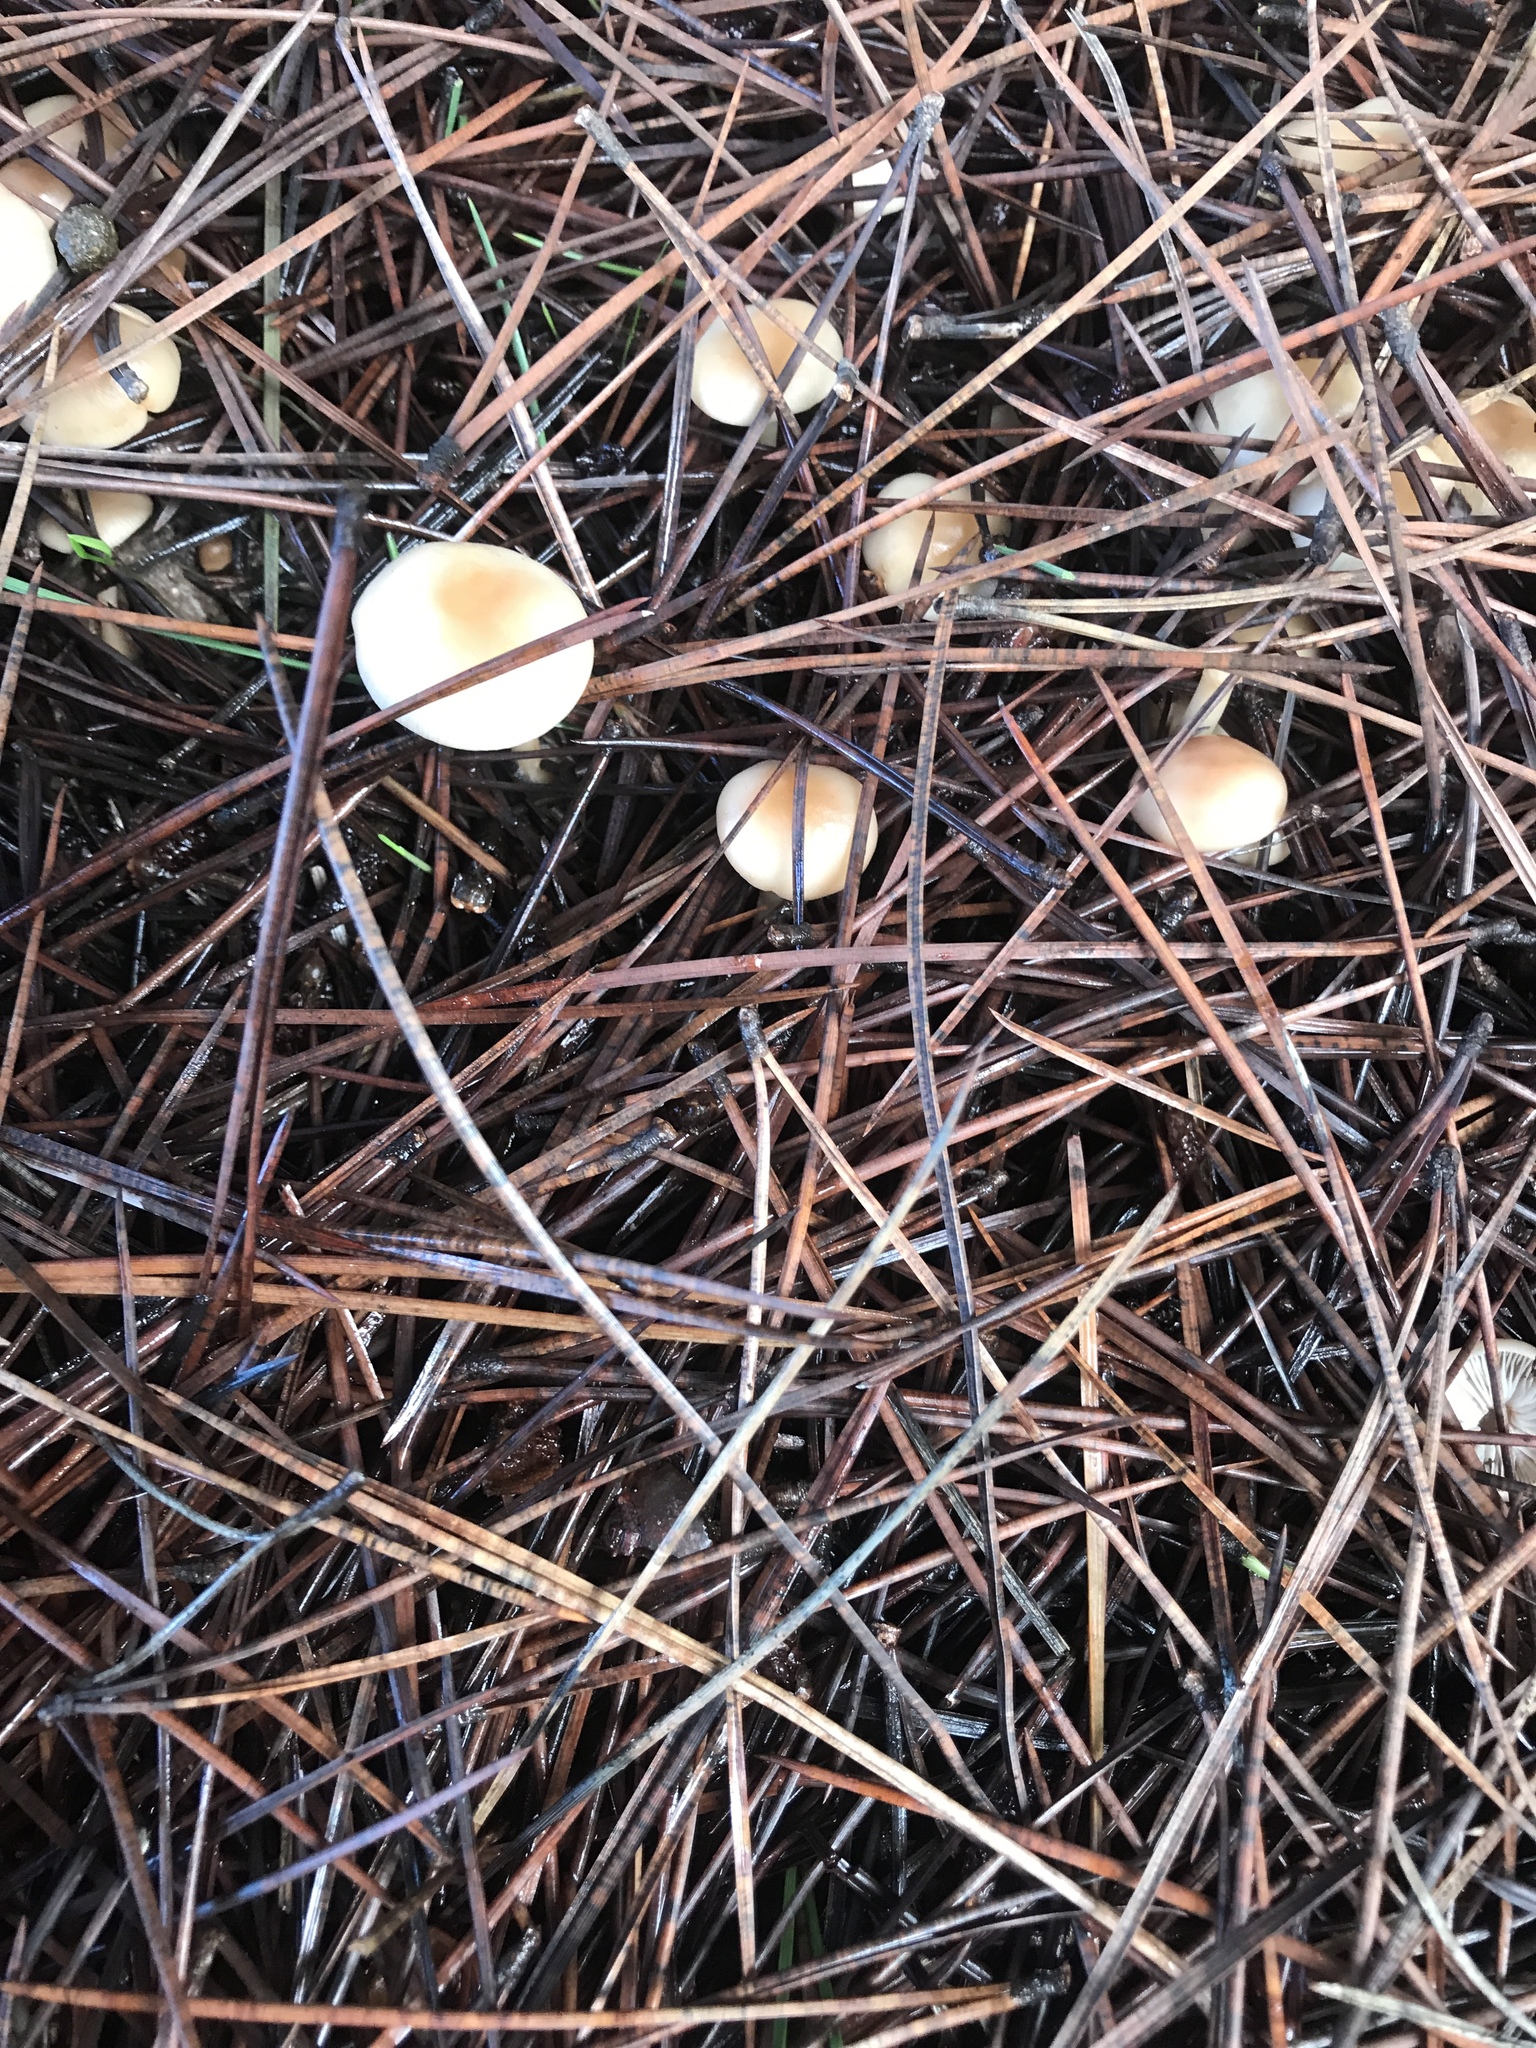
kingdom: Fungi
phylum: Basidiomycota
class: Agaricomycetes
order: Agaricales
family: Omphalotaceae
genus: Gymnopus
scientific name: Gymnopus dryophilus
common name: Penny top
